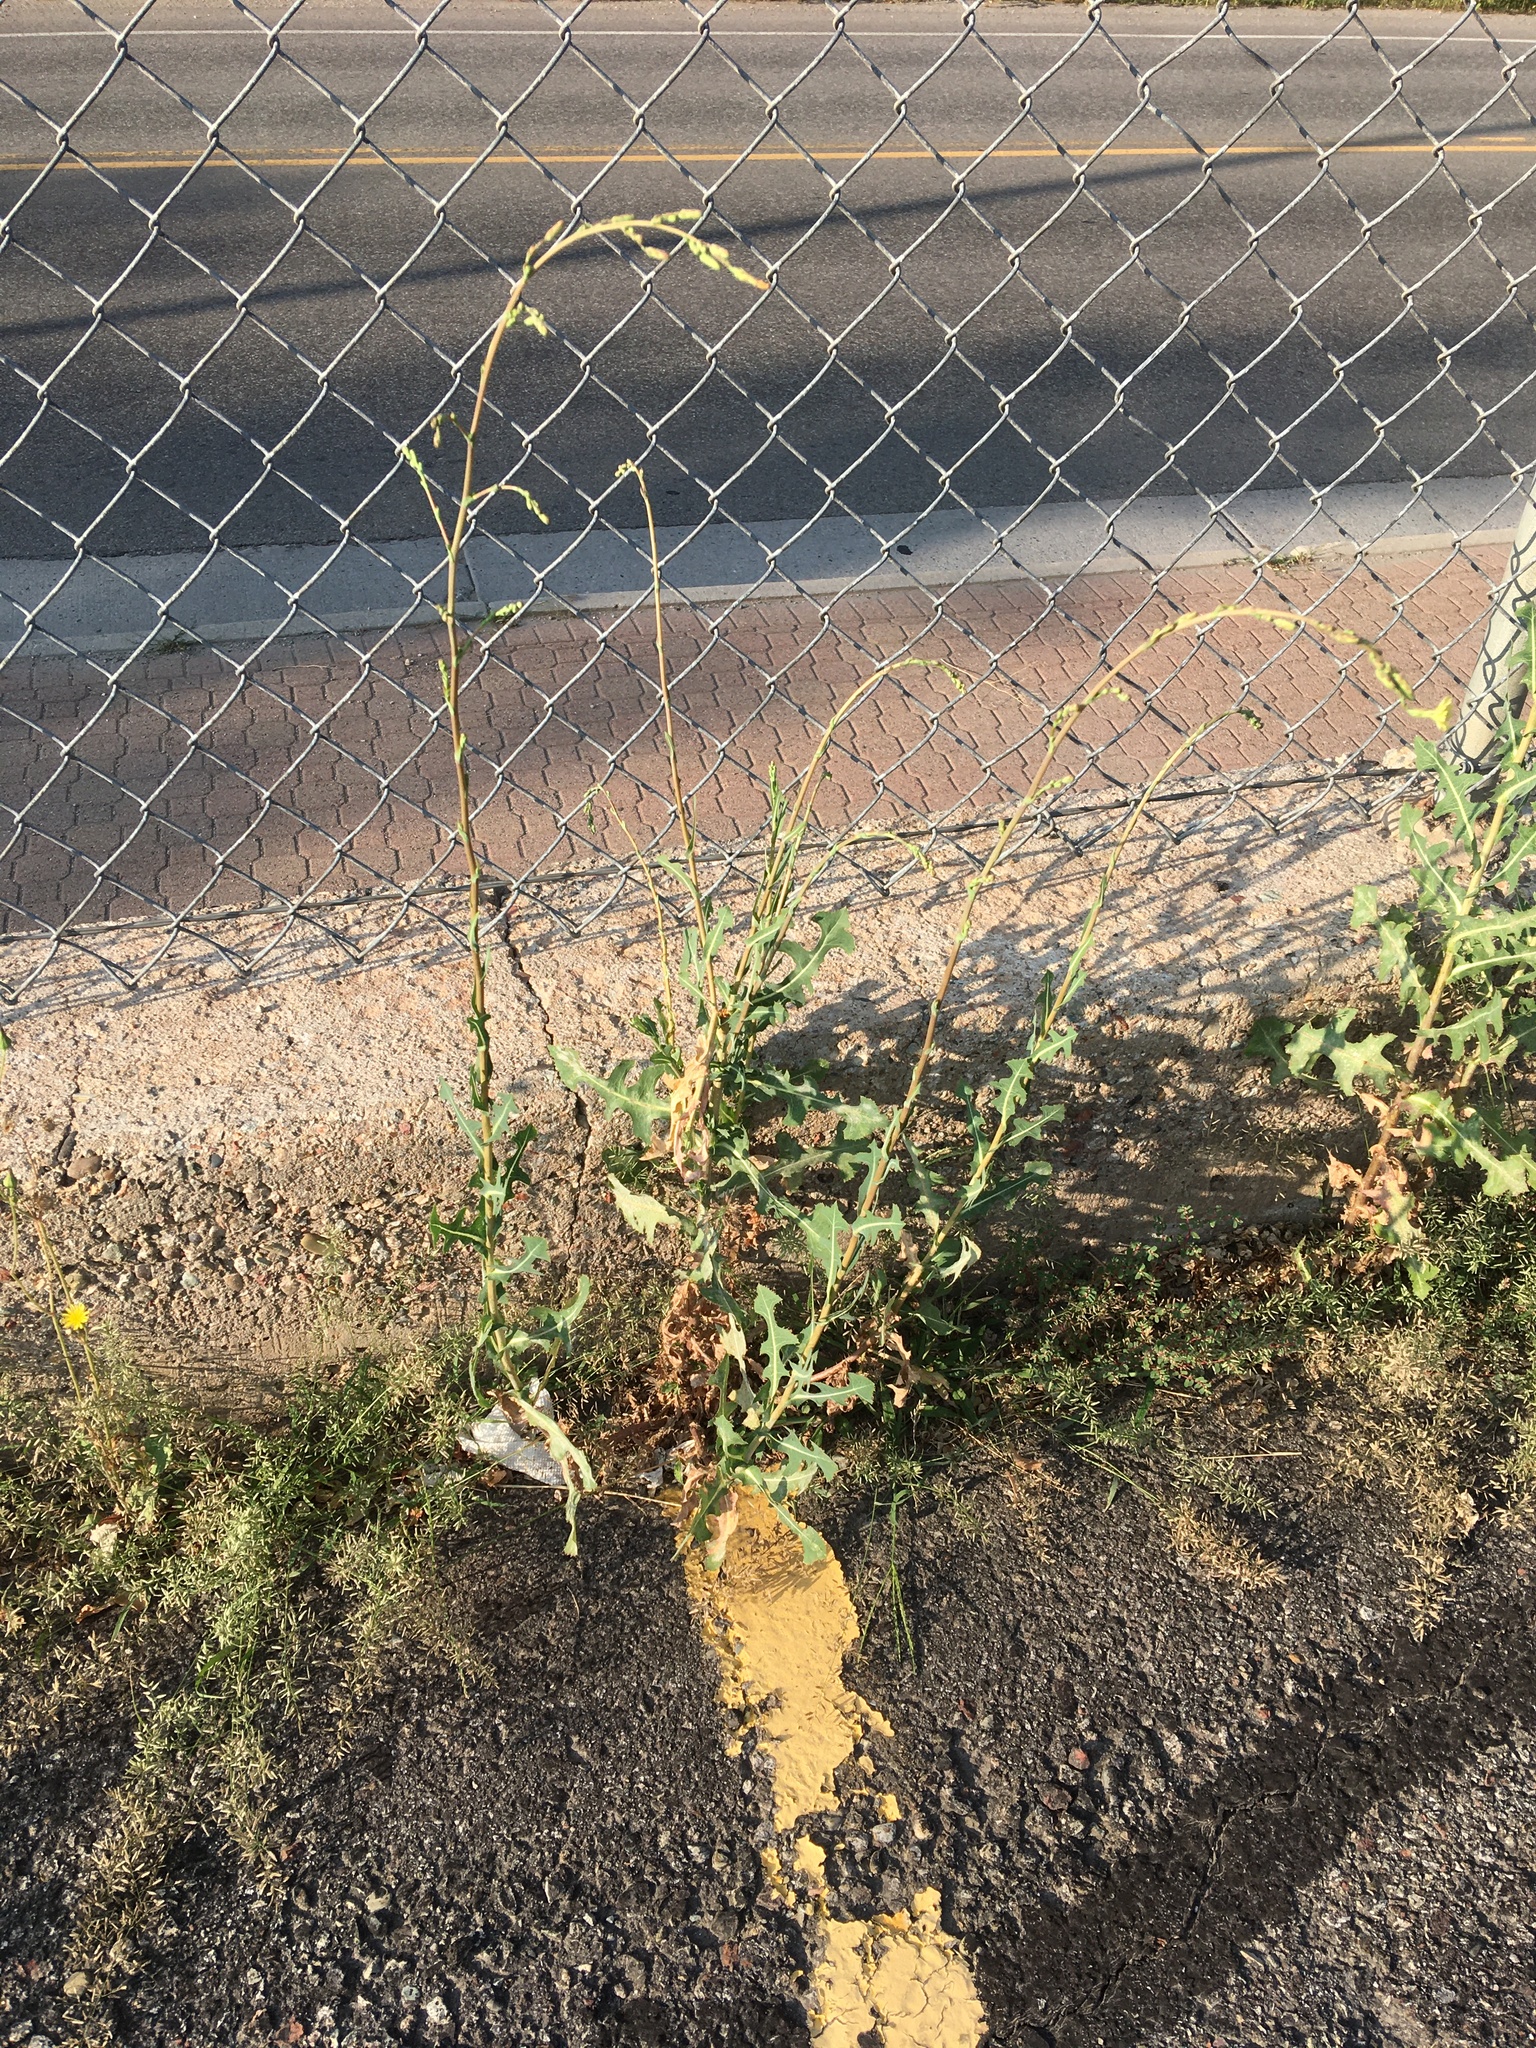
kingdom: Plantae
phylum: Tracheophyta
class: Magnoliopsida
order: Asterales
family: Asteraceae
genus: Lactuca
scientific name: Lactuca serriola
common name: Prickly lettuce
